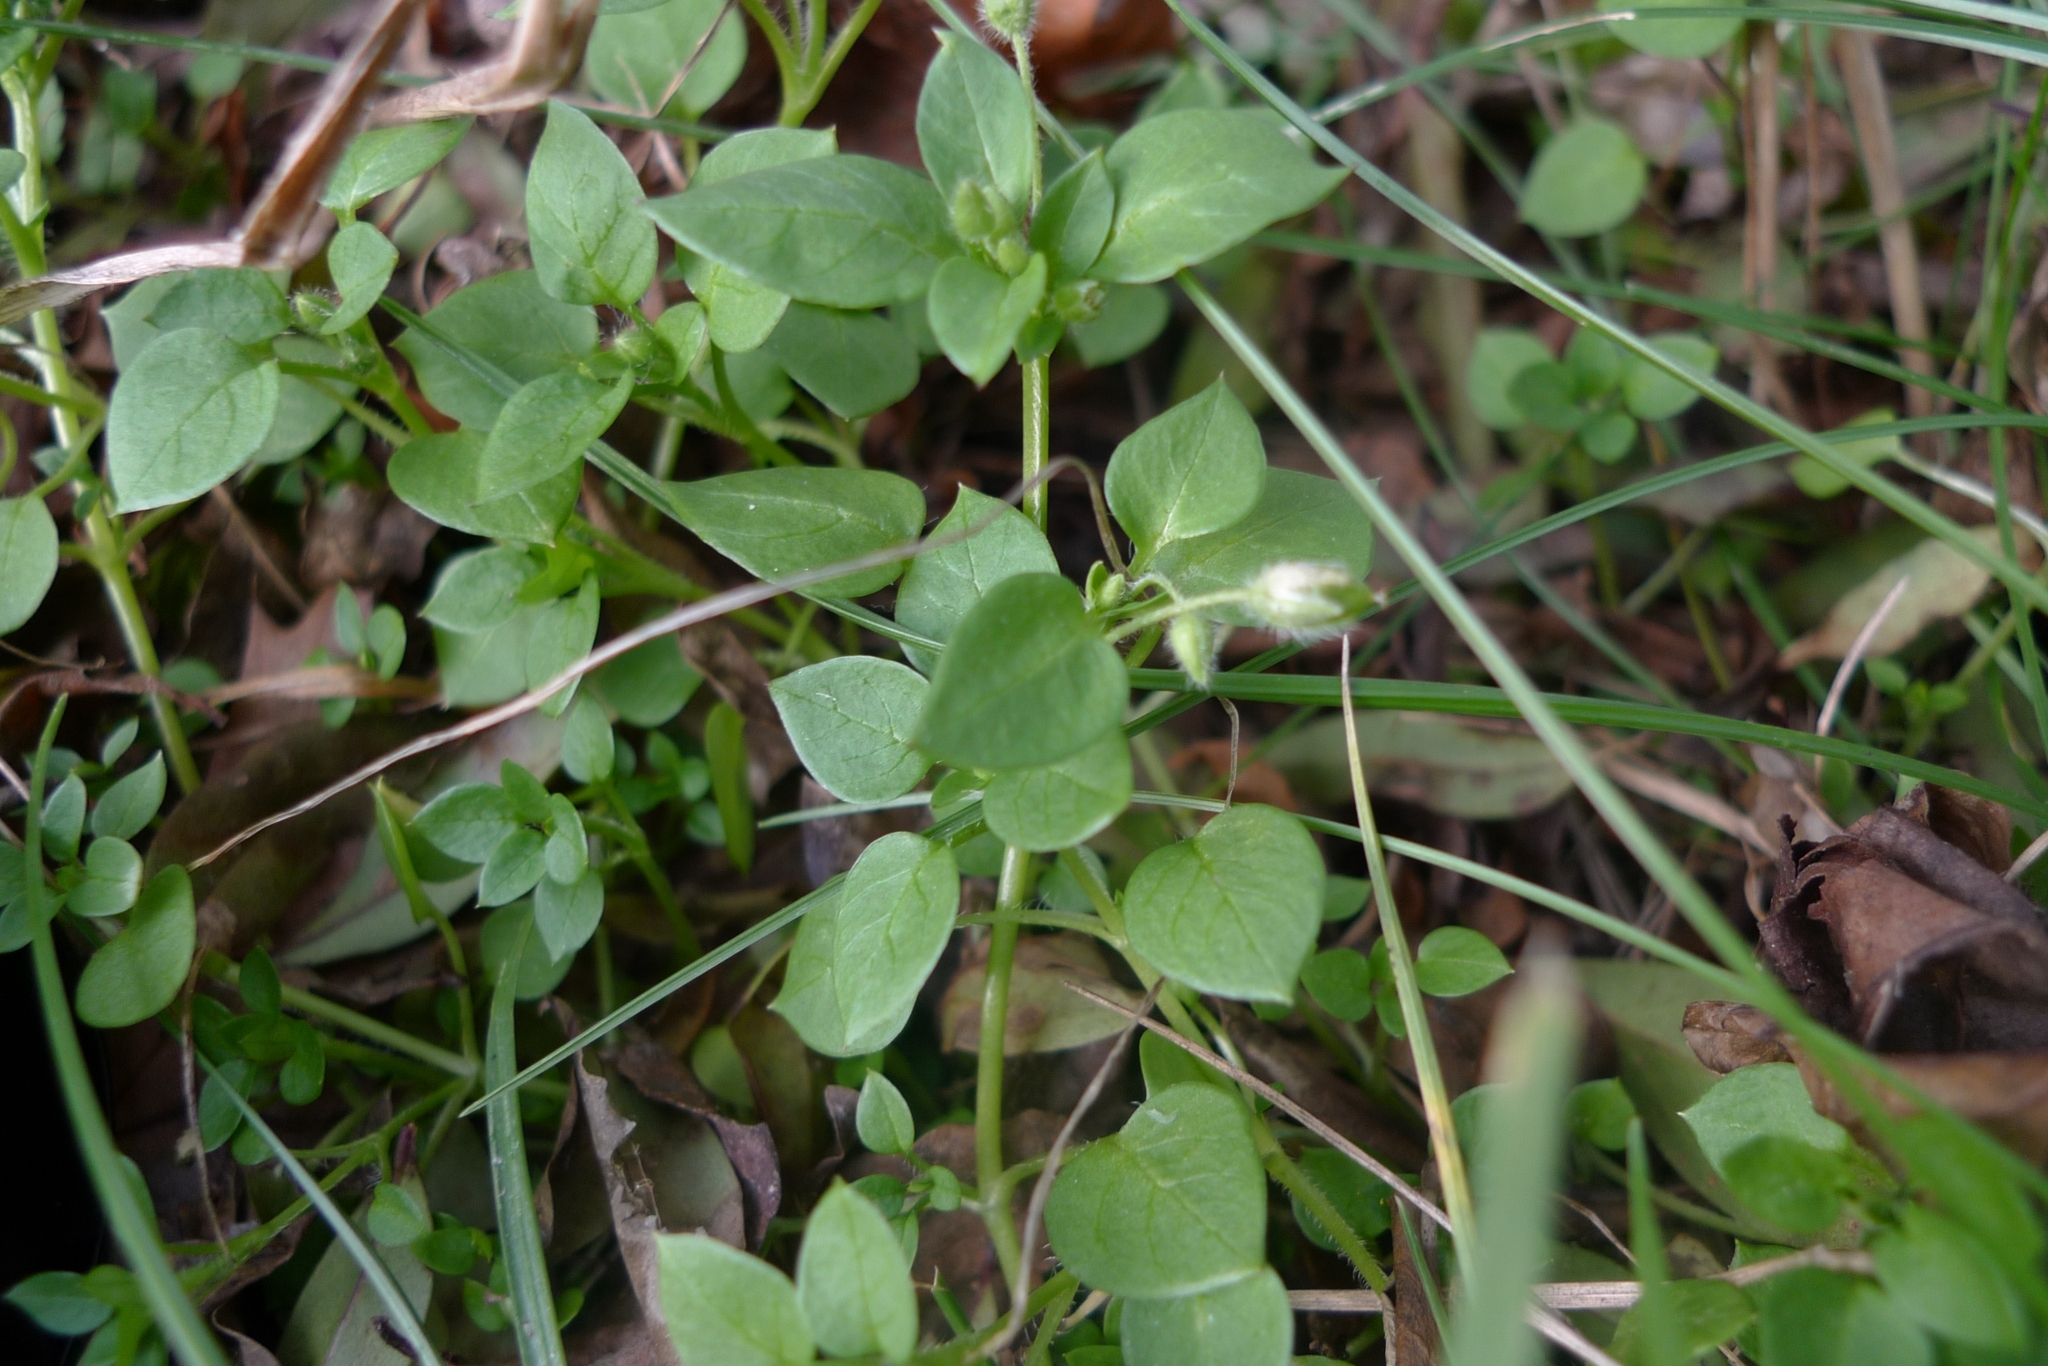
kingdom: Plantae
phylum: Tracheophyta
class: Magnoliopsida
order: Caryophyllales
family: Caryophyllaceae
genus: Stellaria
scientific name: Stellaria media
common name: Common chickweed
